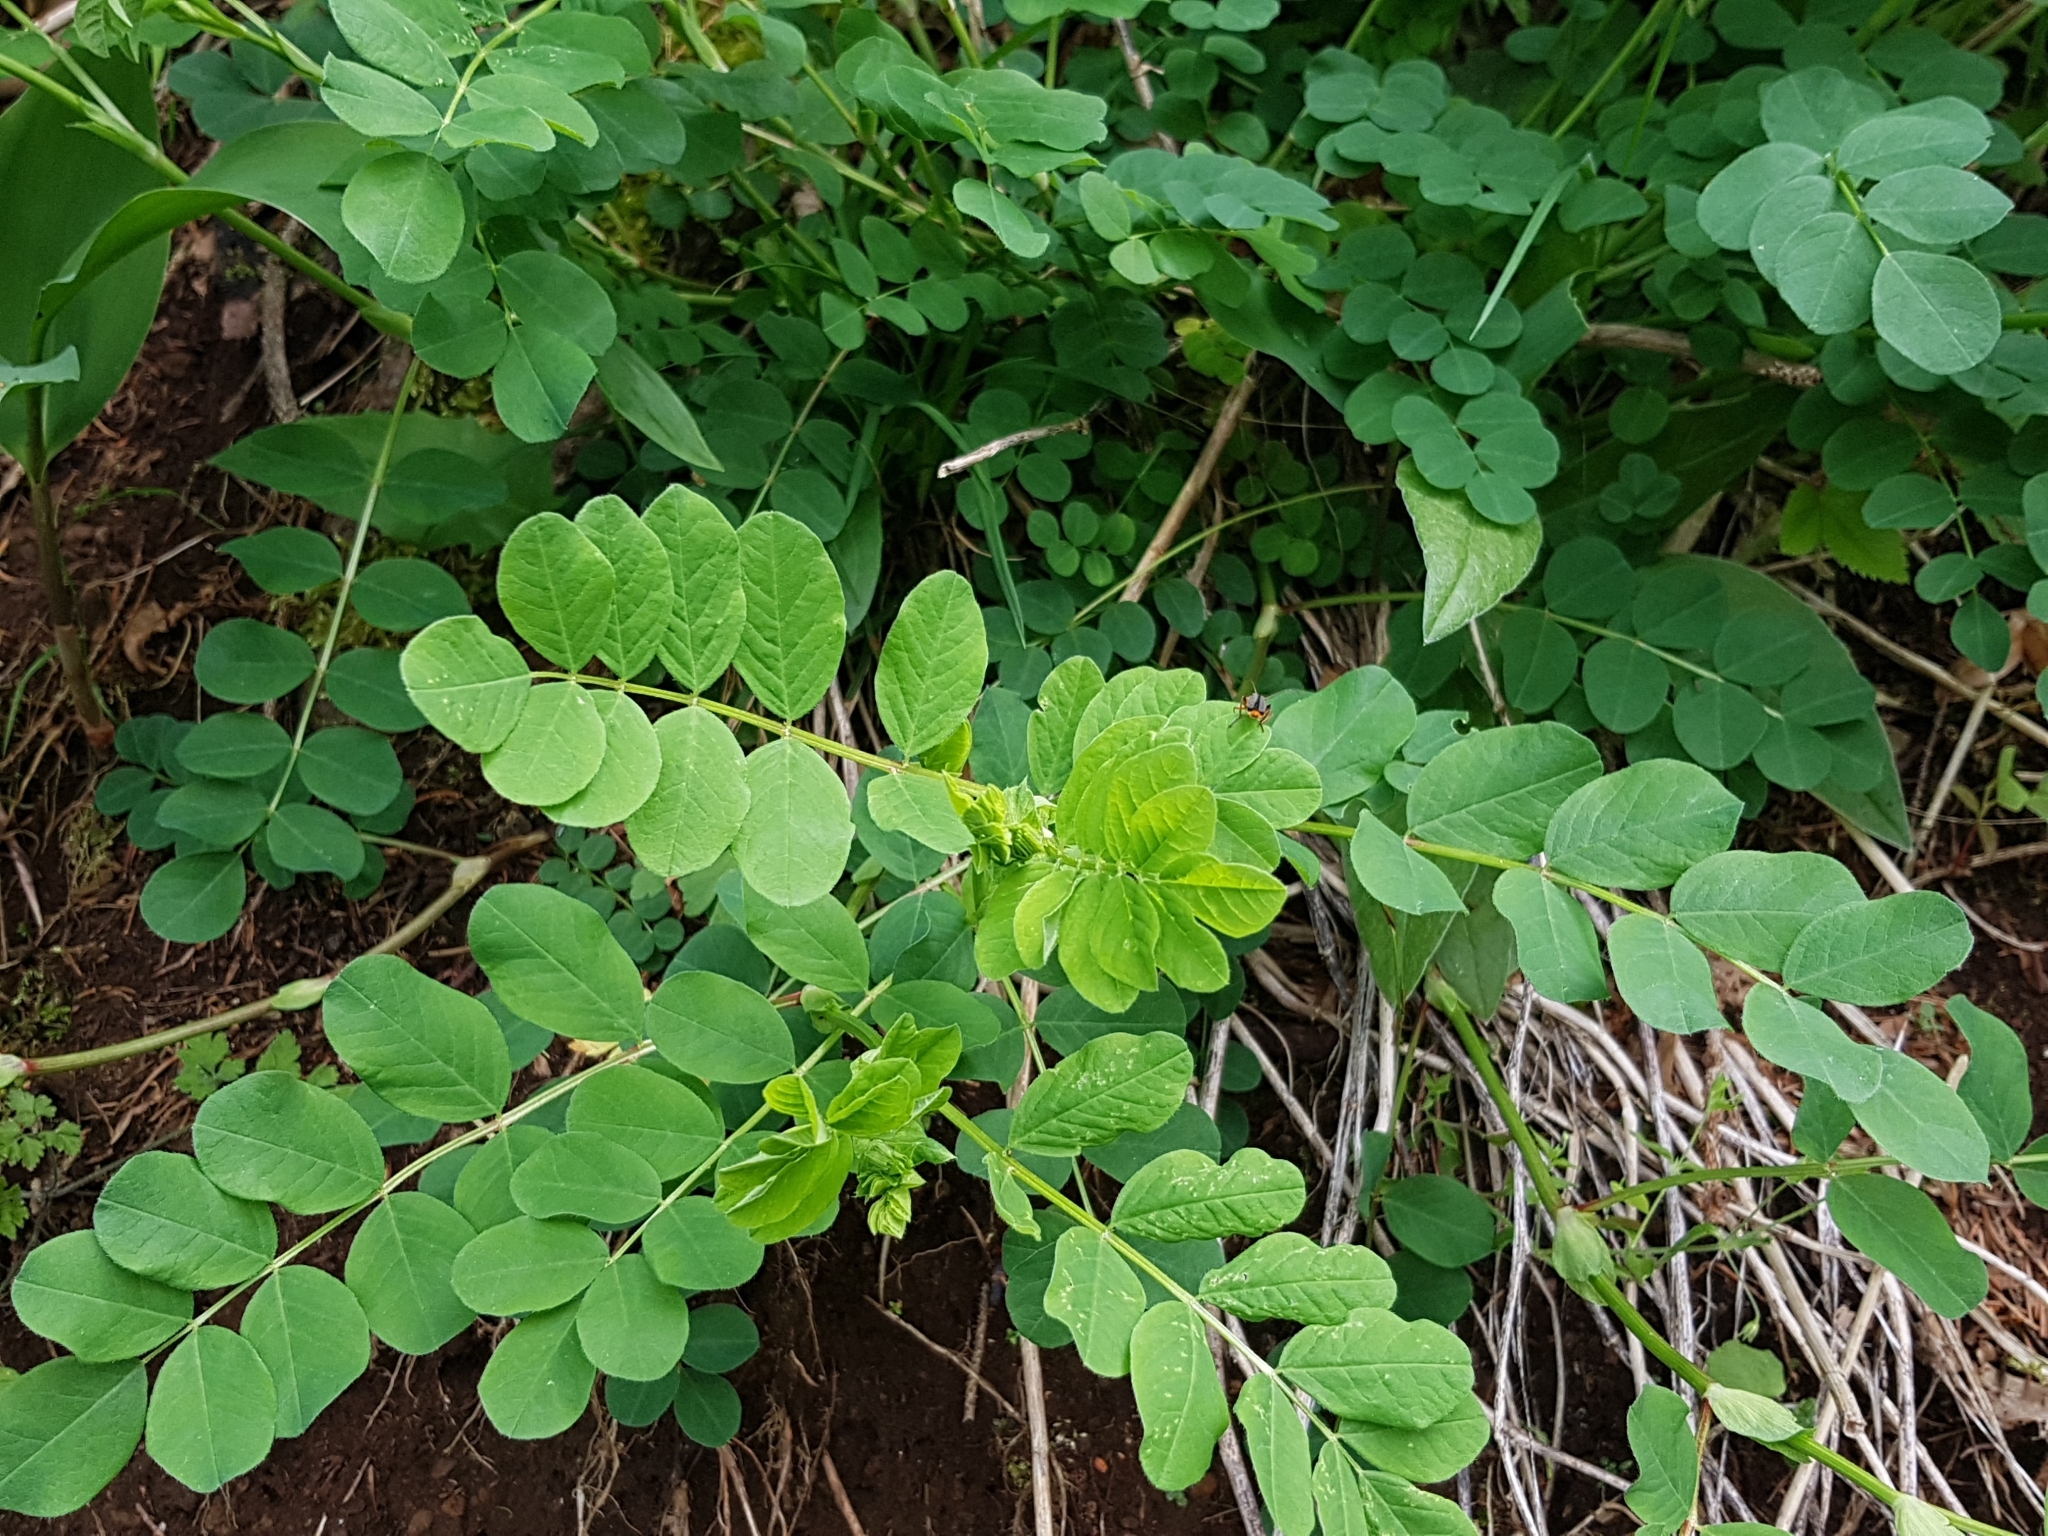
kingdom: Plantae
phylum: Tracheophyta
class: Magnoliopsida
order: Fabales
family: Fabaceae
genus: Astragalus
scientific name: Astragalus glycyphyllos
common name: Wild liquorice
